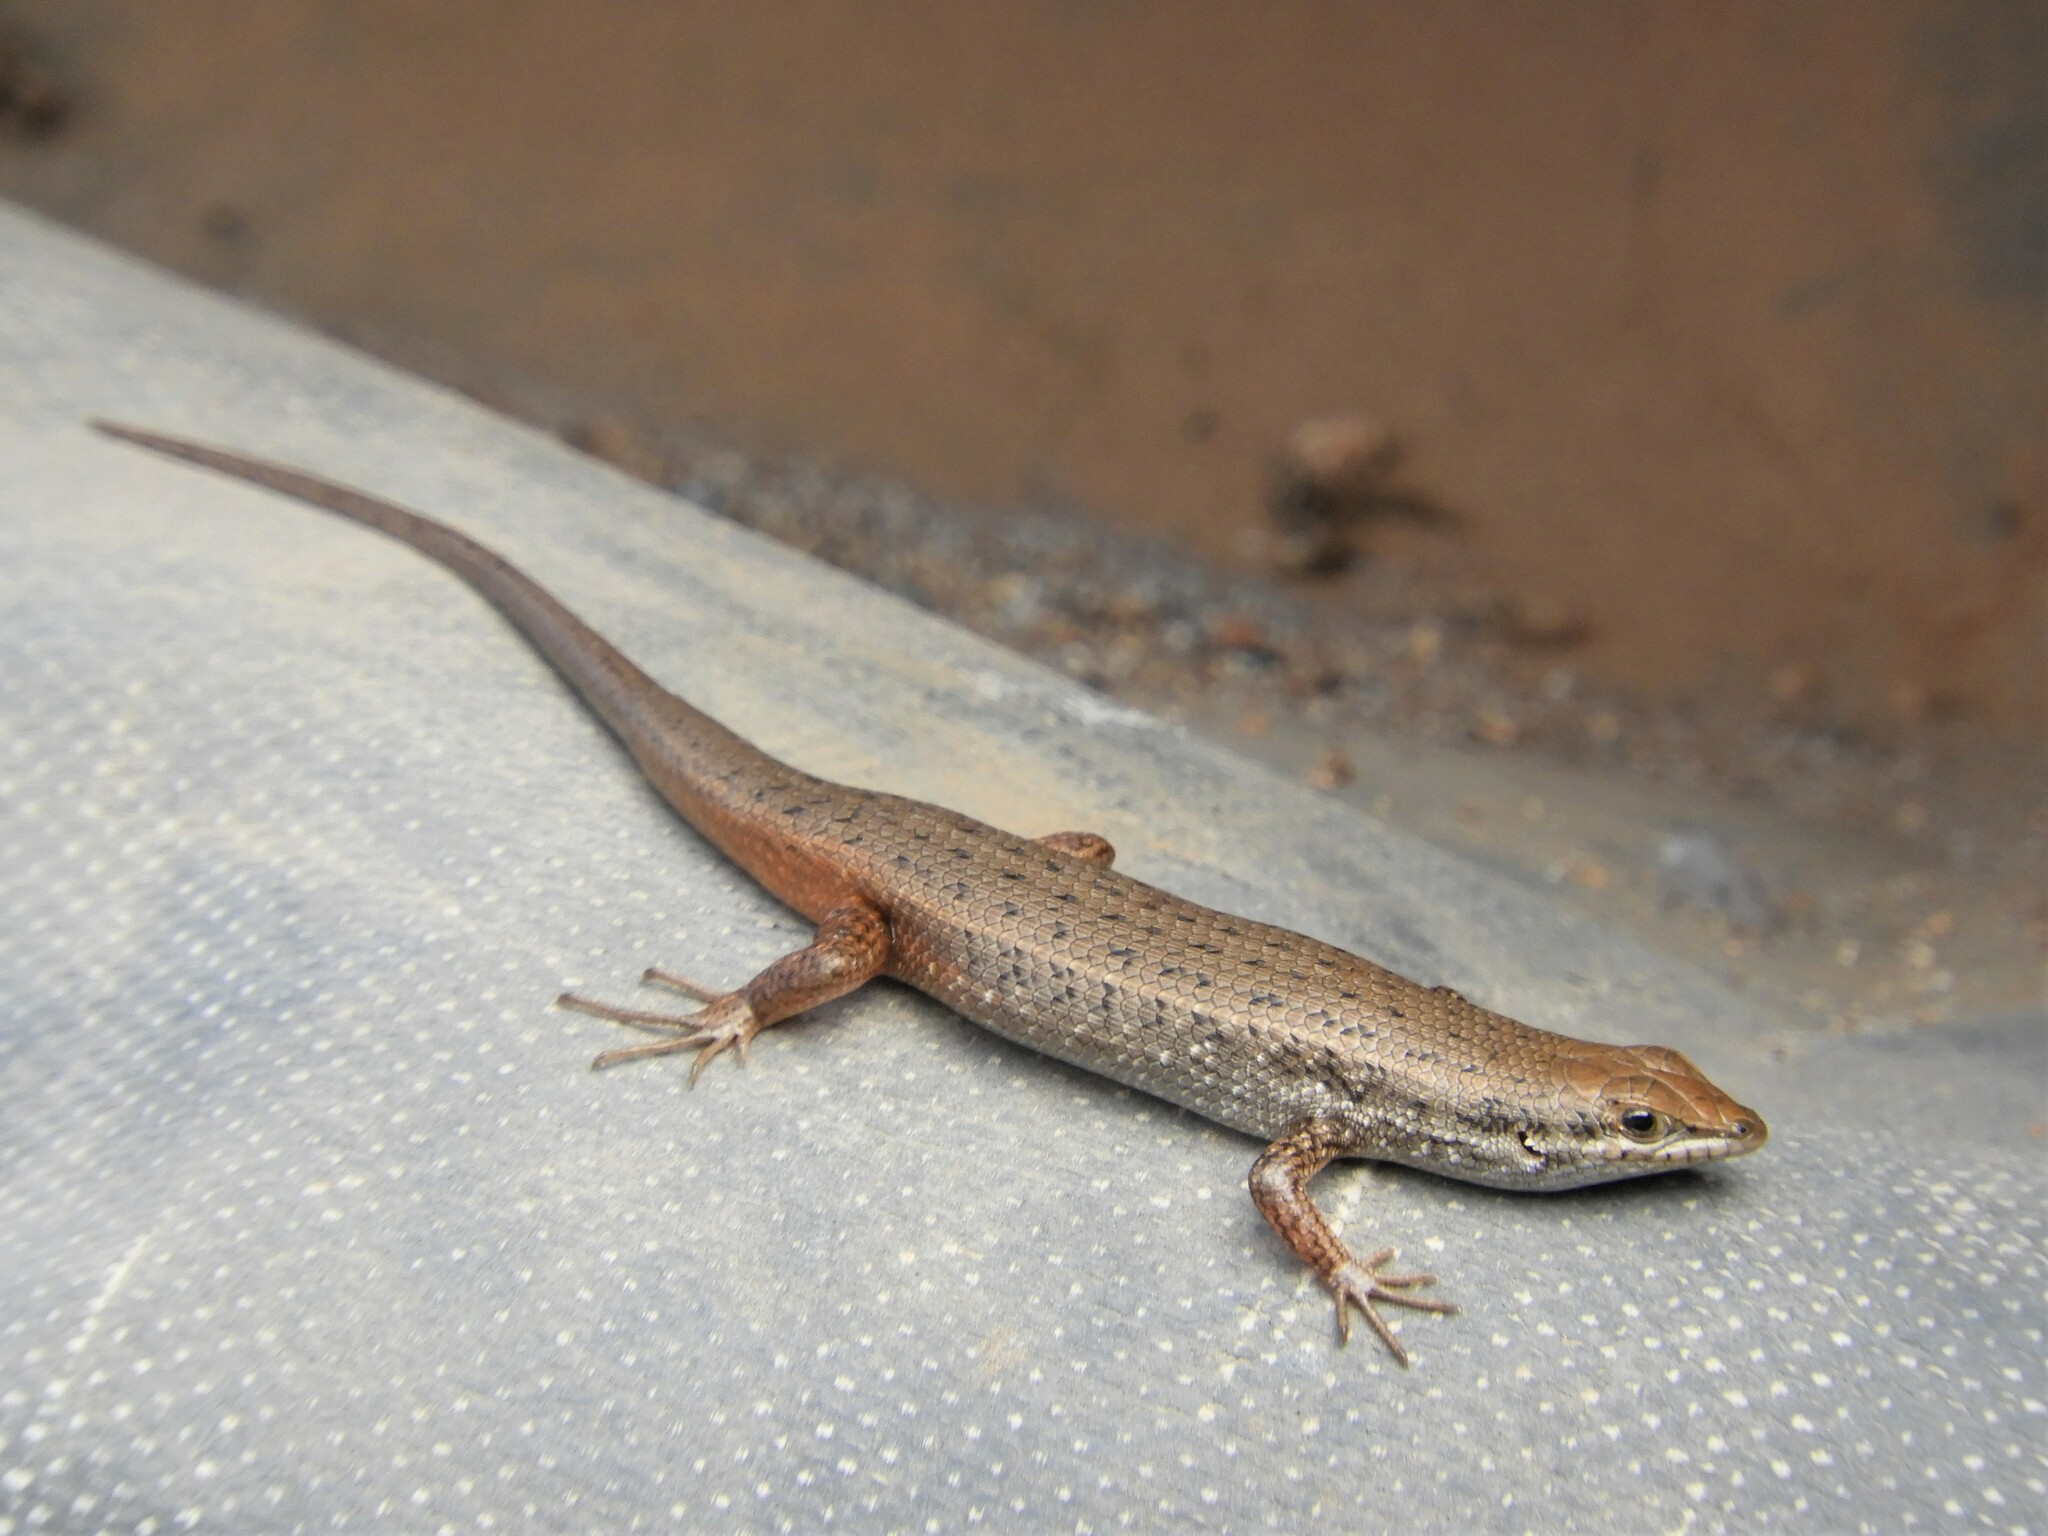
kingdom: Animalia
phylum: Chordata
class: Squamata
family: Scincidae
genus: Trachylepis
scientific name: Trachylepis variegata
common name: Variegated skink
